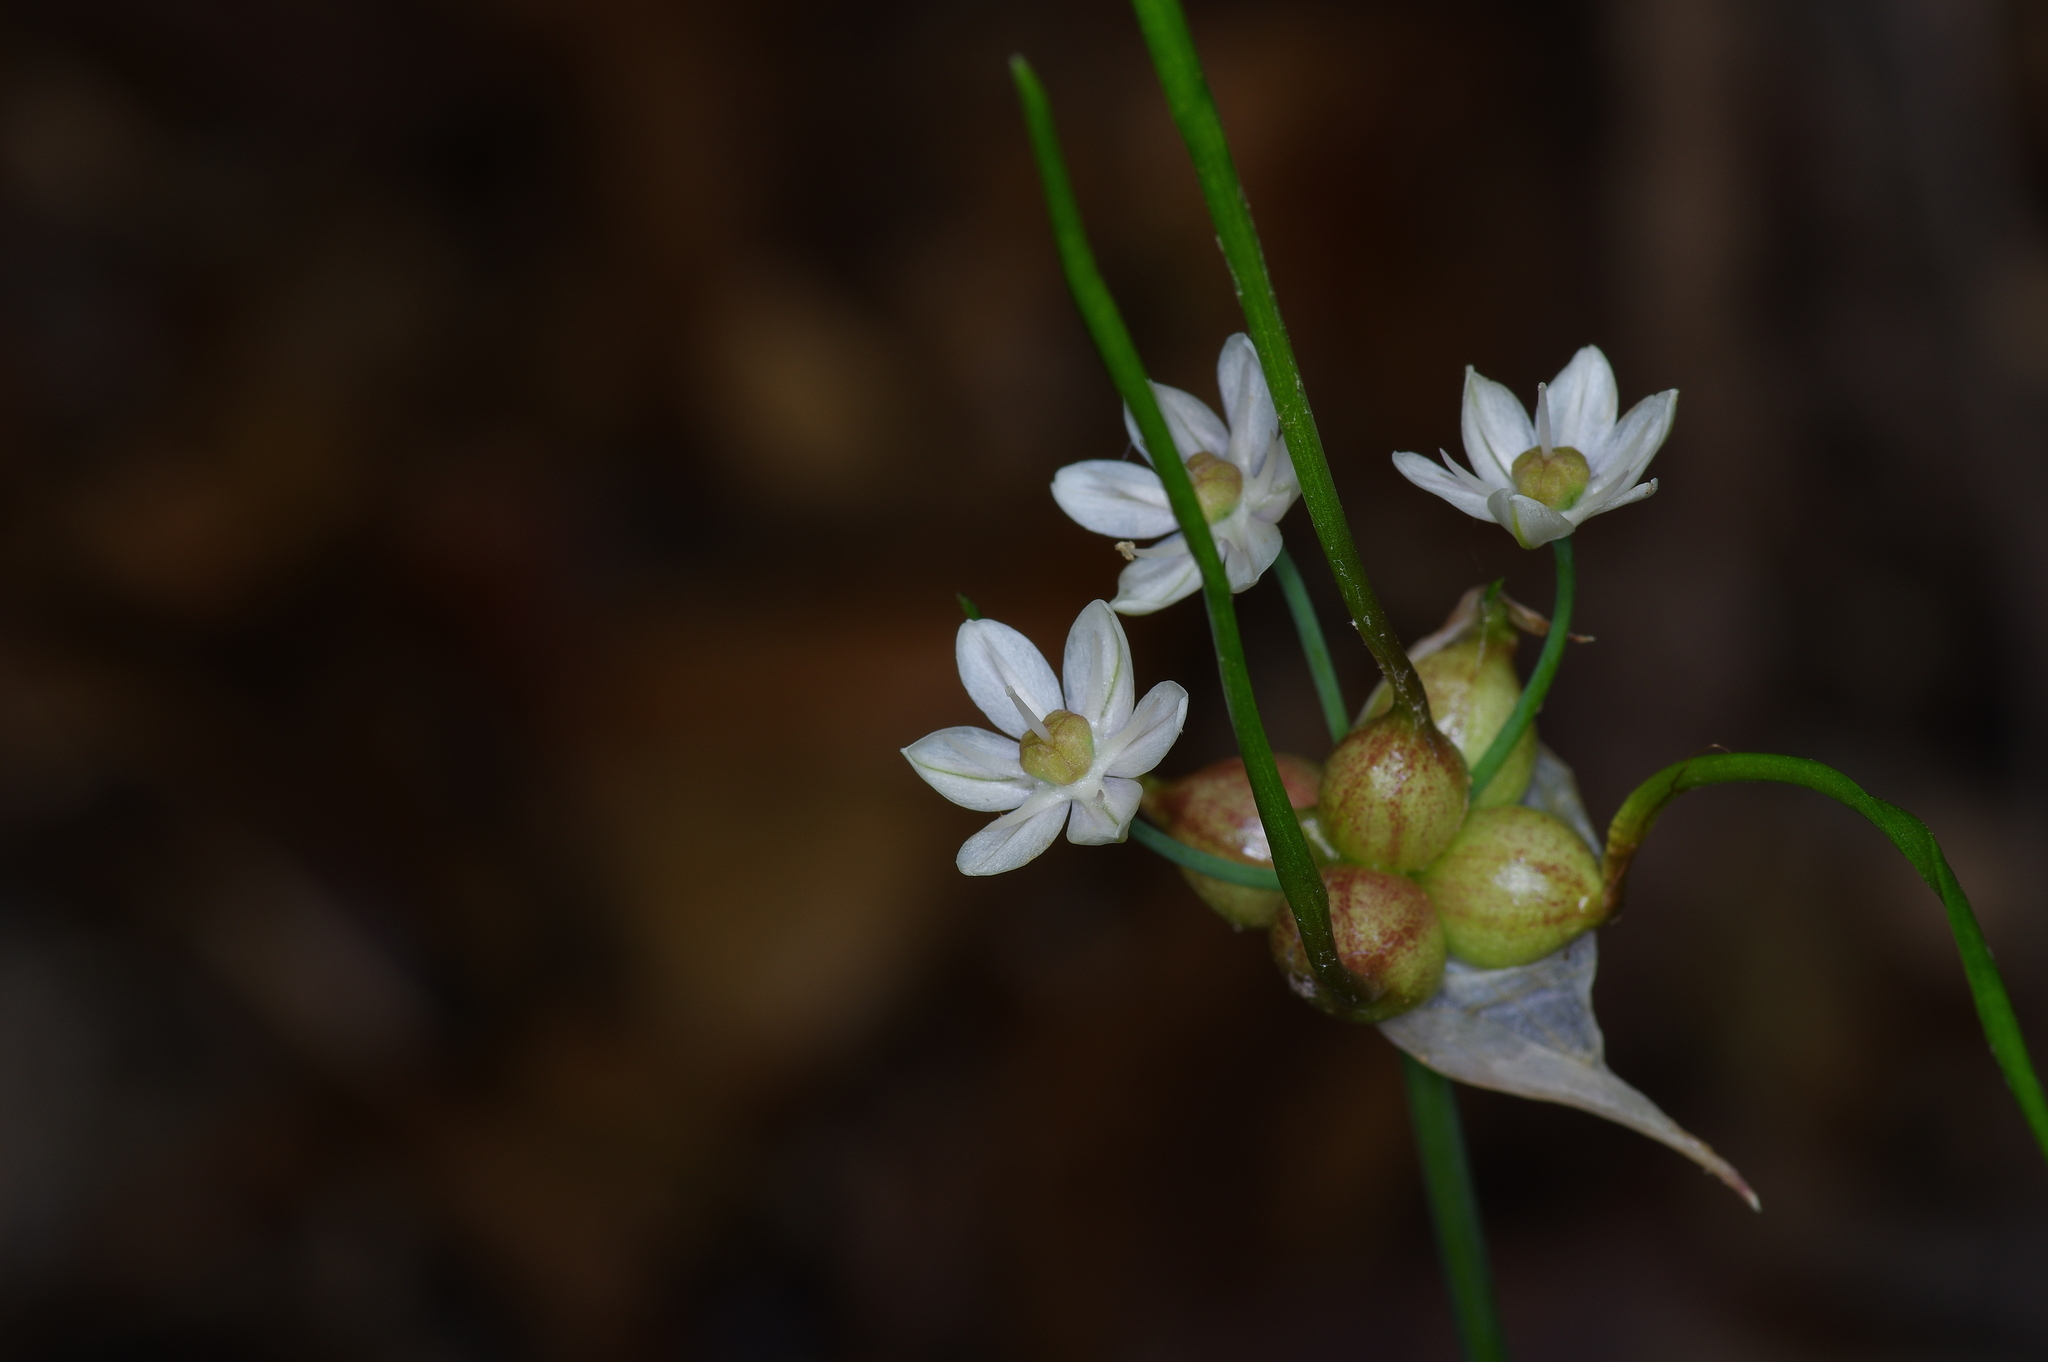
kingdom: Plantae
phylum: Tracheophyta
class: Liliopsida
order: Asparagales
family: Amaryllidaceae
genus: Allium
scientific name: Allium canadense
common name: Meadow garlic
